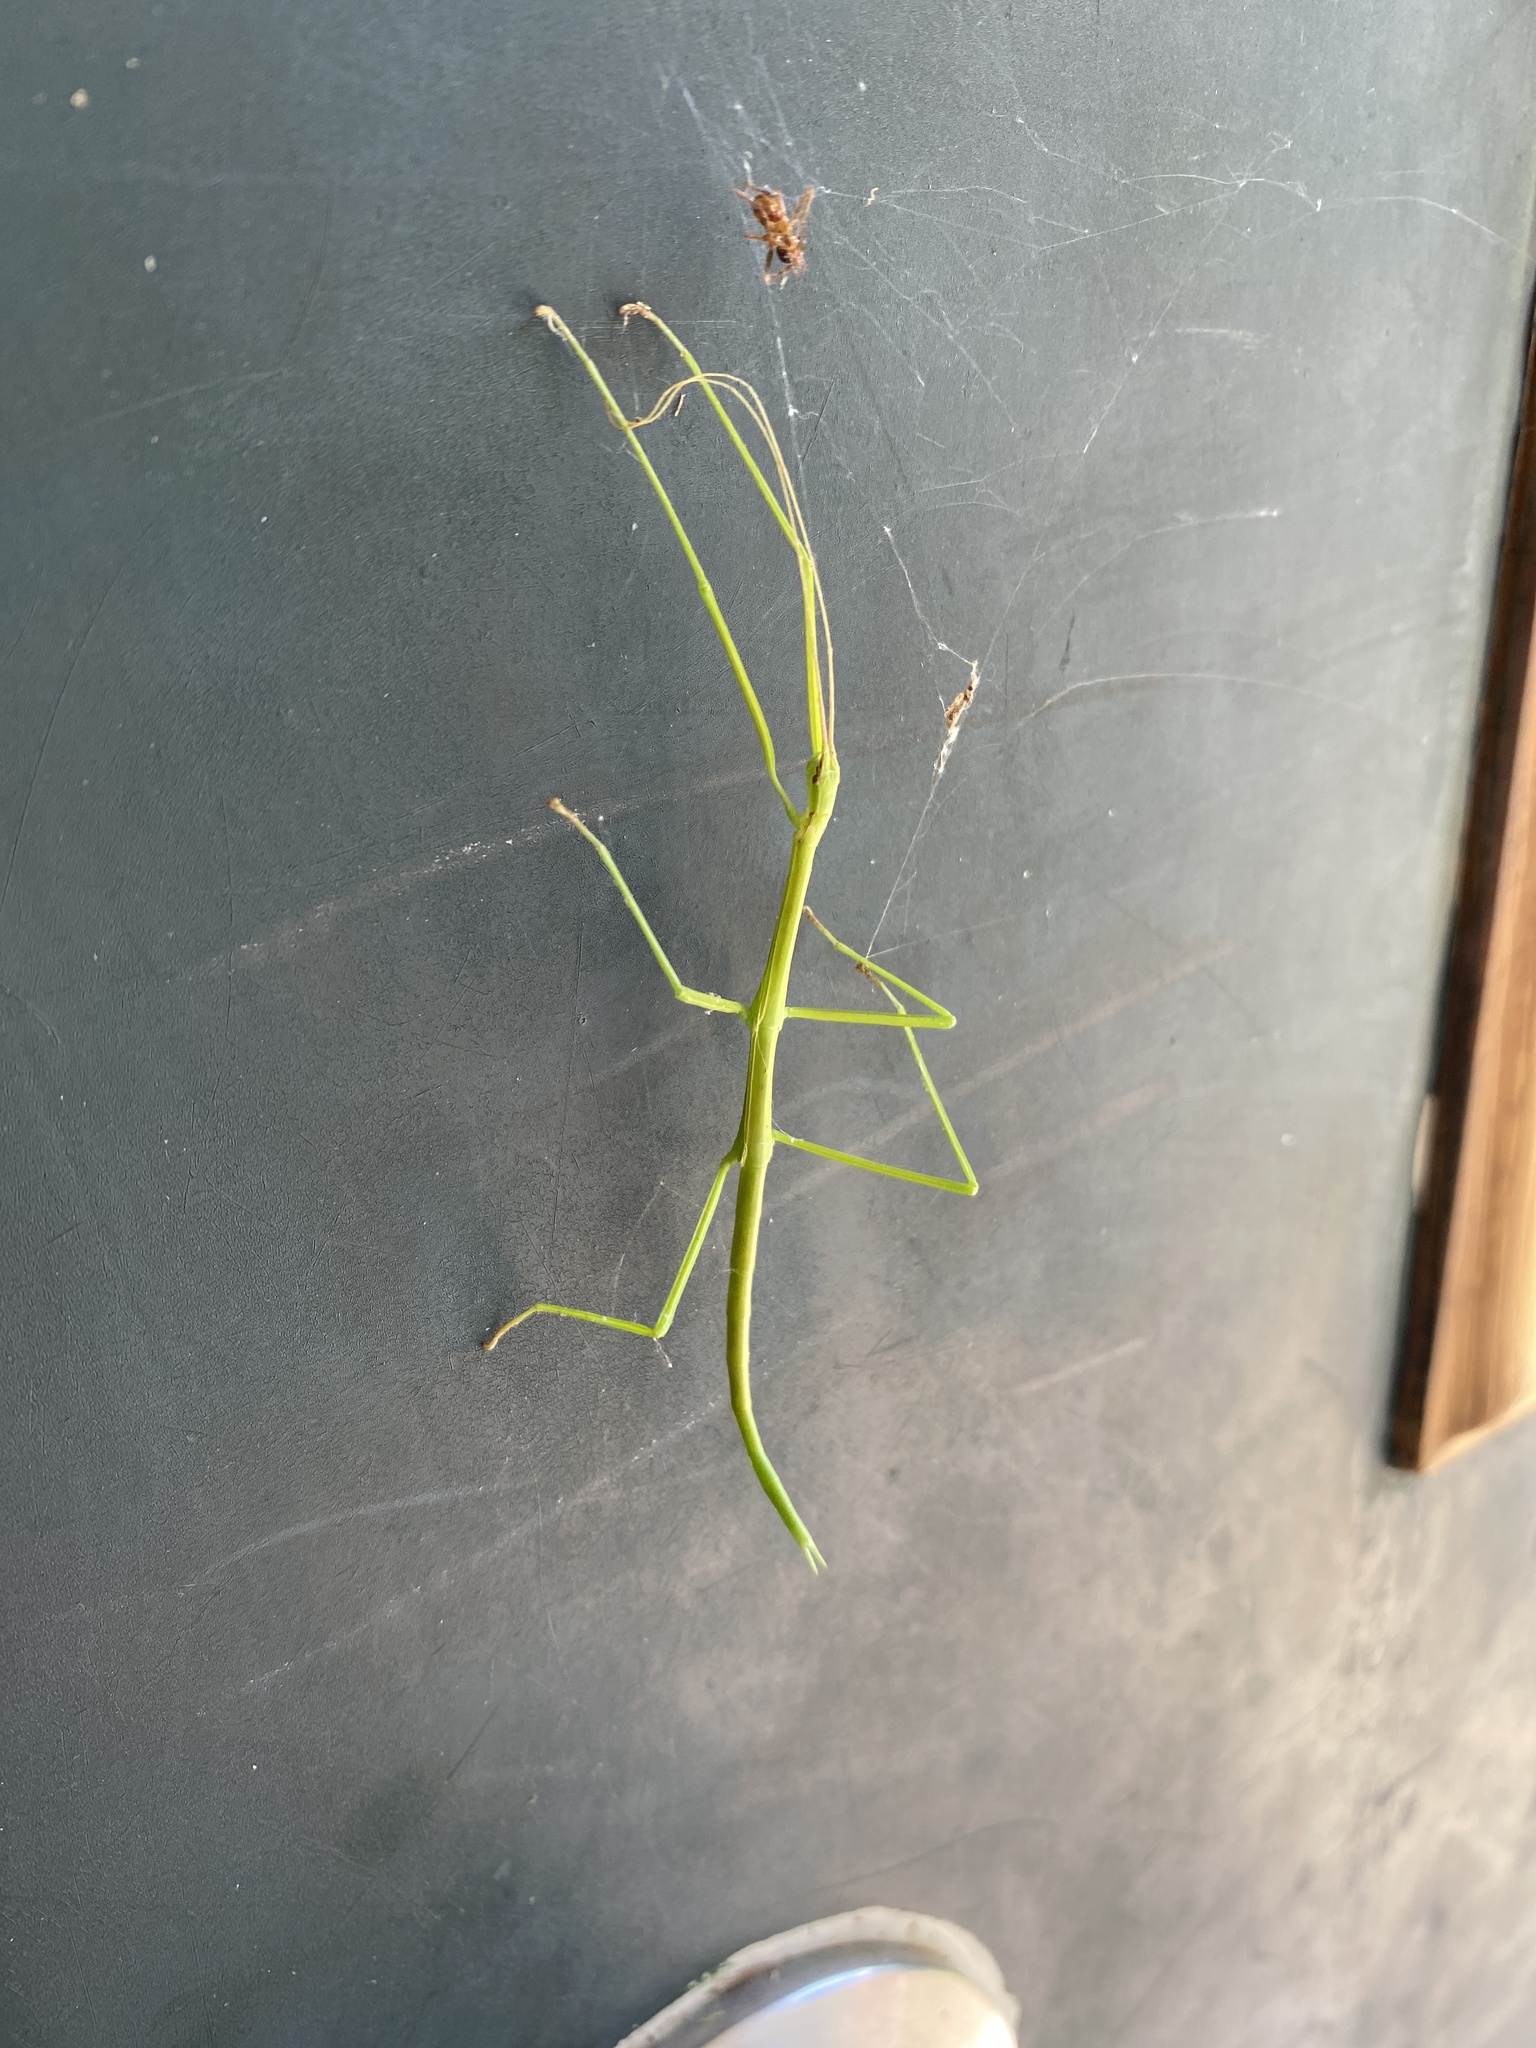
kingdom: Animalia
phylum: Arthropoda
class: Insecta
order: Phasmida
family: Diapheromeridae
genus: Manomera
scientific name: Manomera blatchleyi
